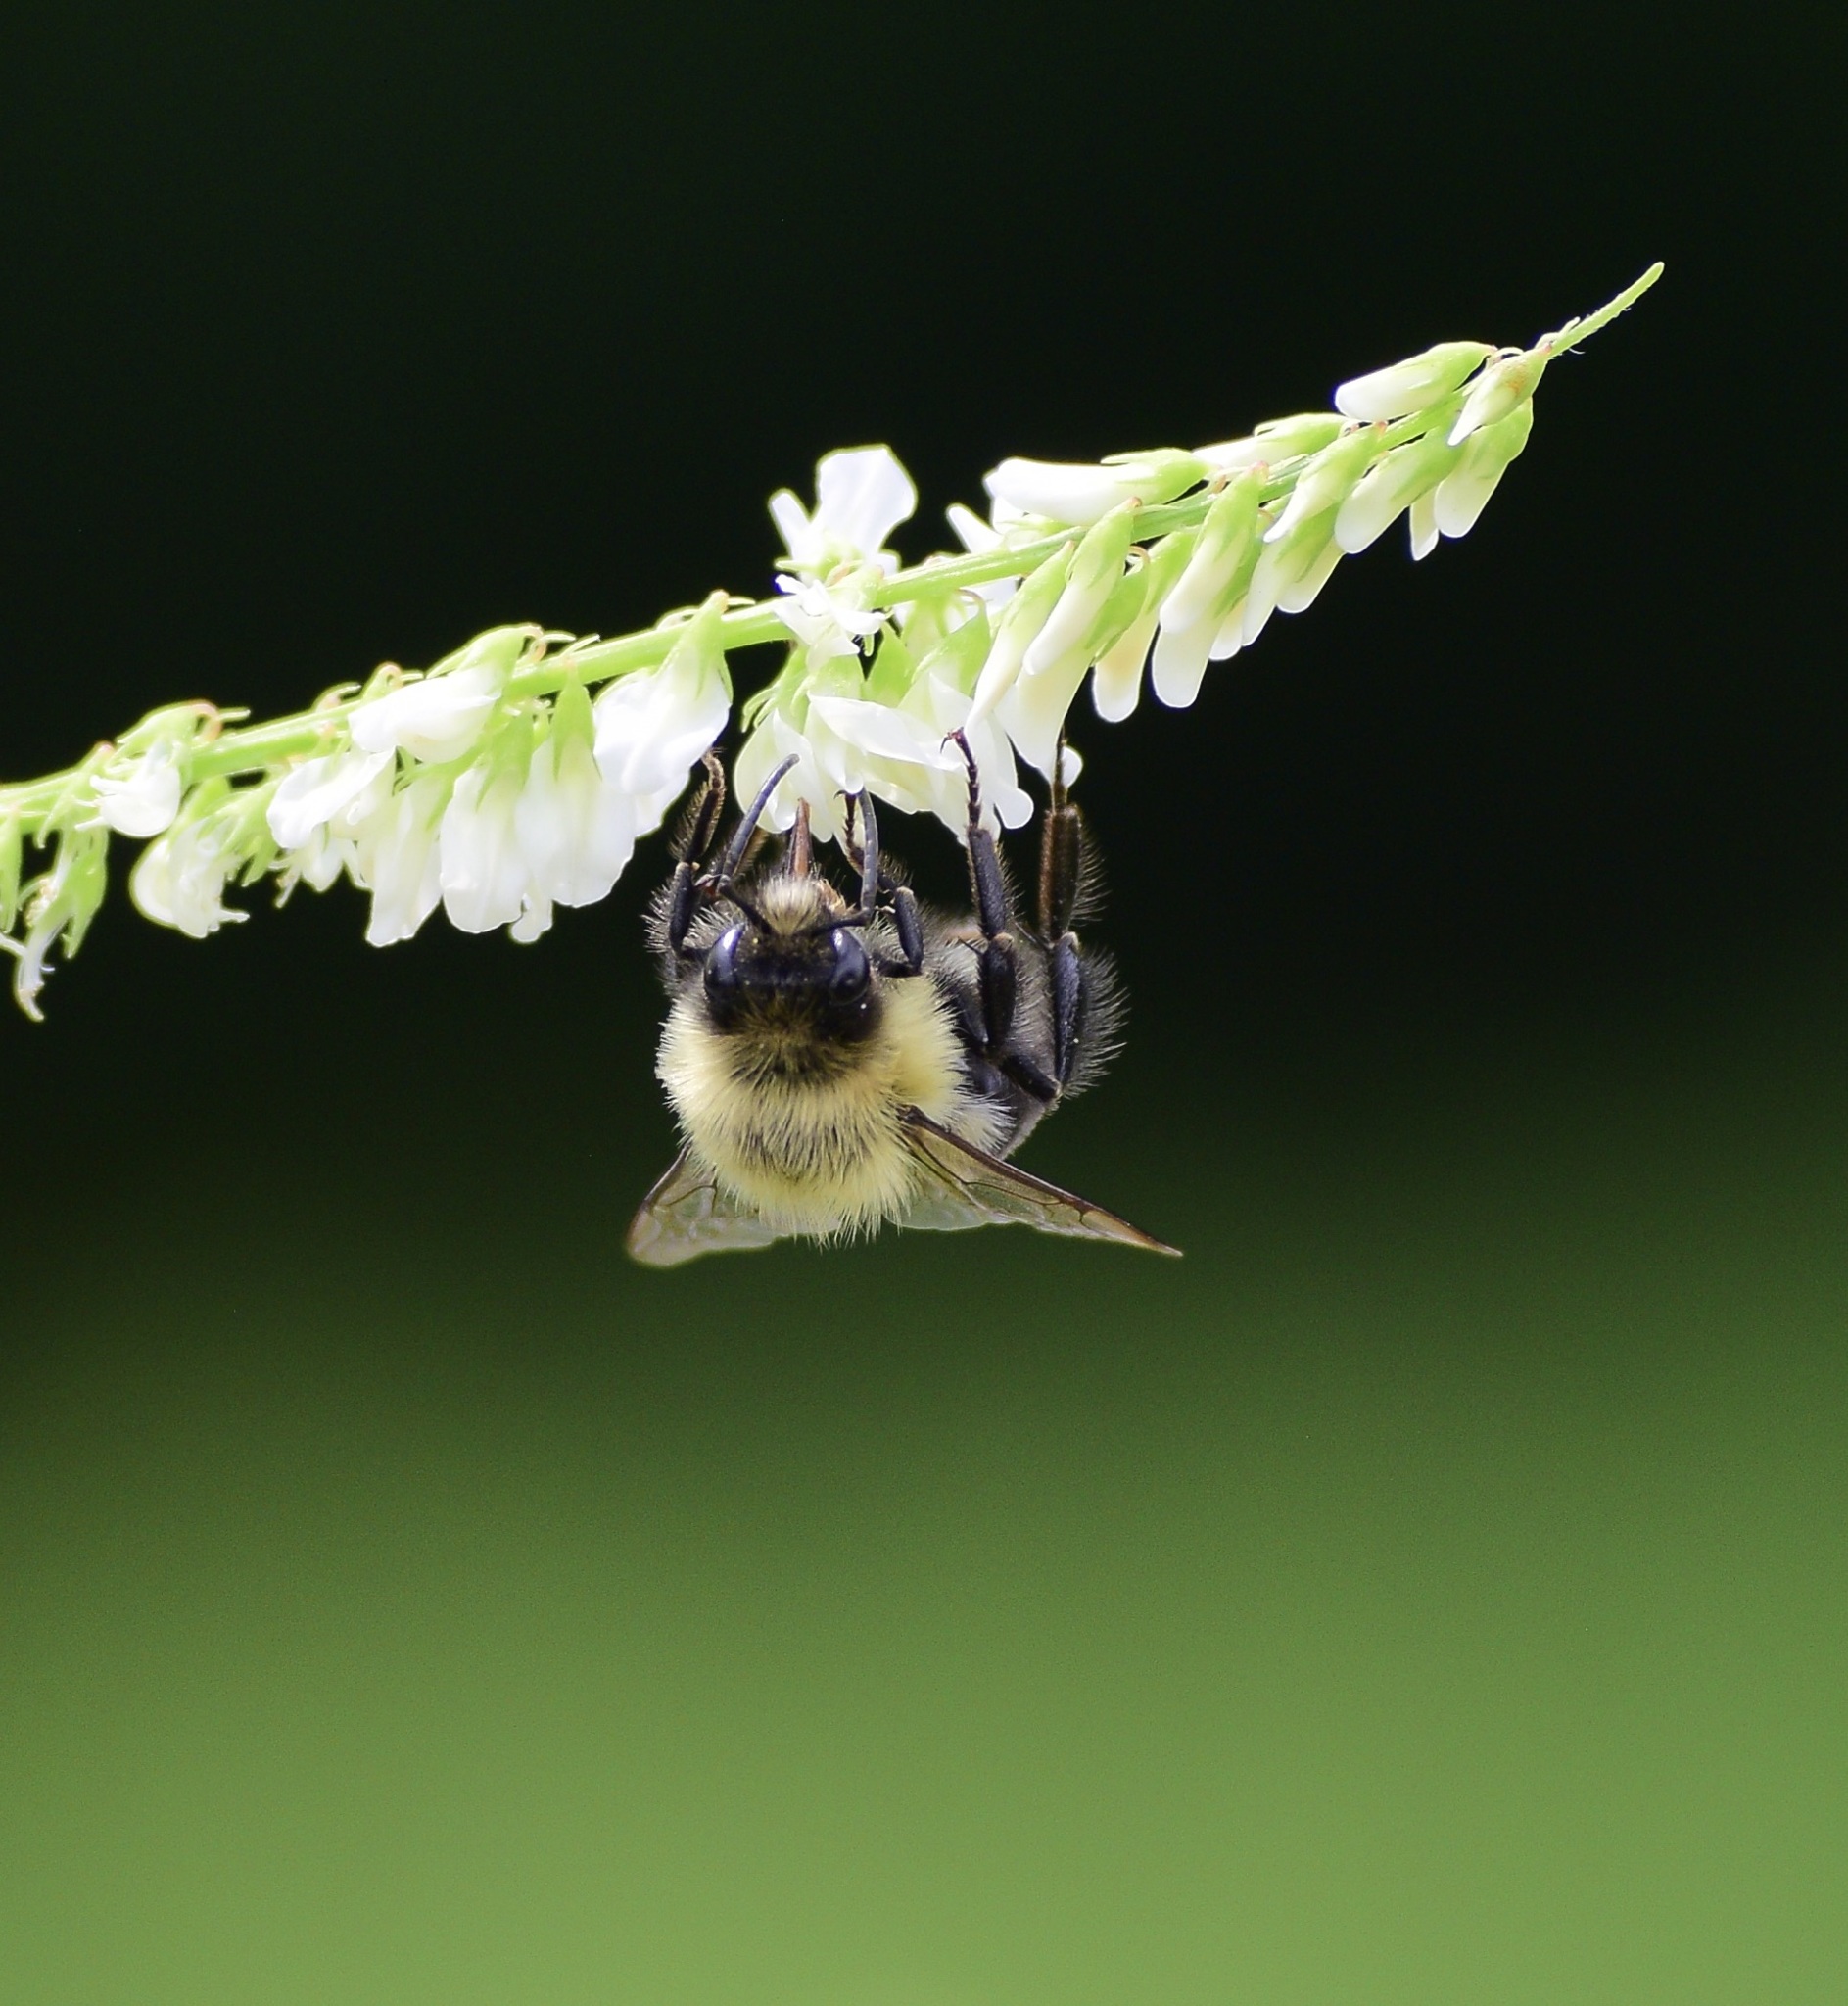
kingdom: Animalia
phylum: Arthropoda
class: Insecta
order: Hymenoptera
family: Apidae
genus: Bombus
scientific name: Bombus impatiens
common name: Common eastern bumble bee
